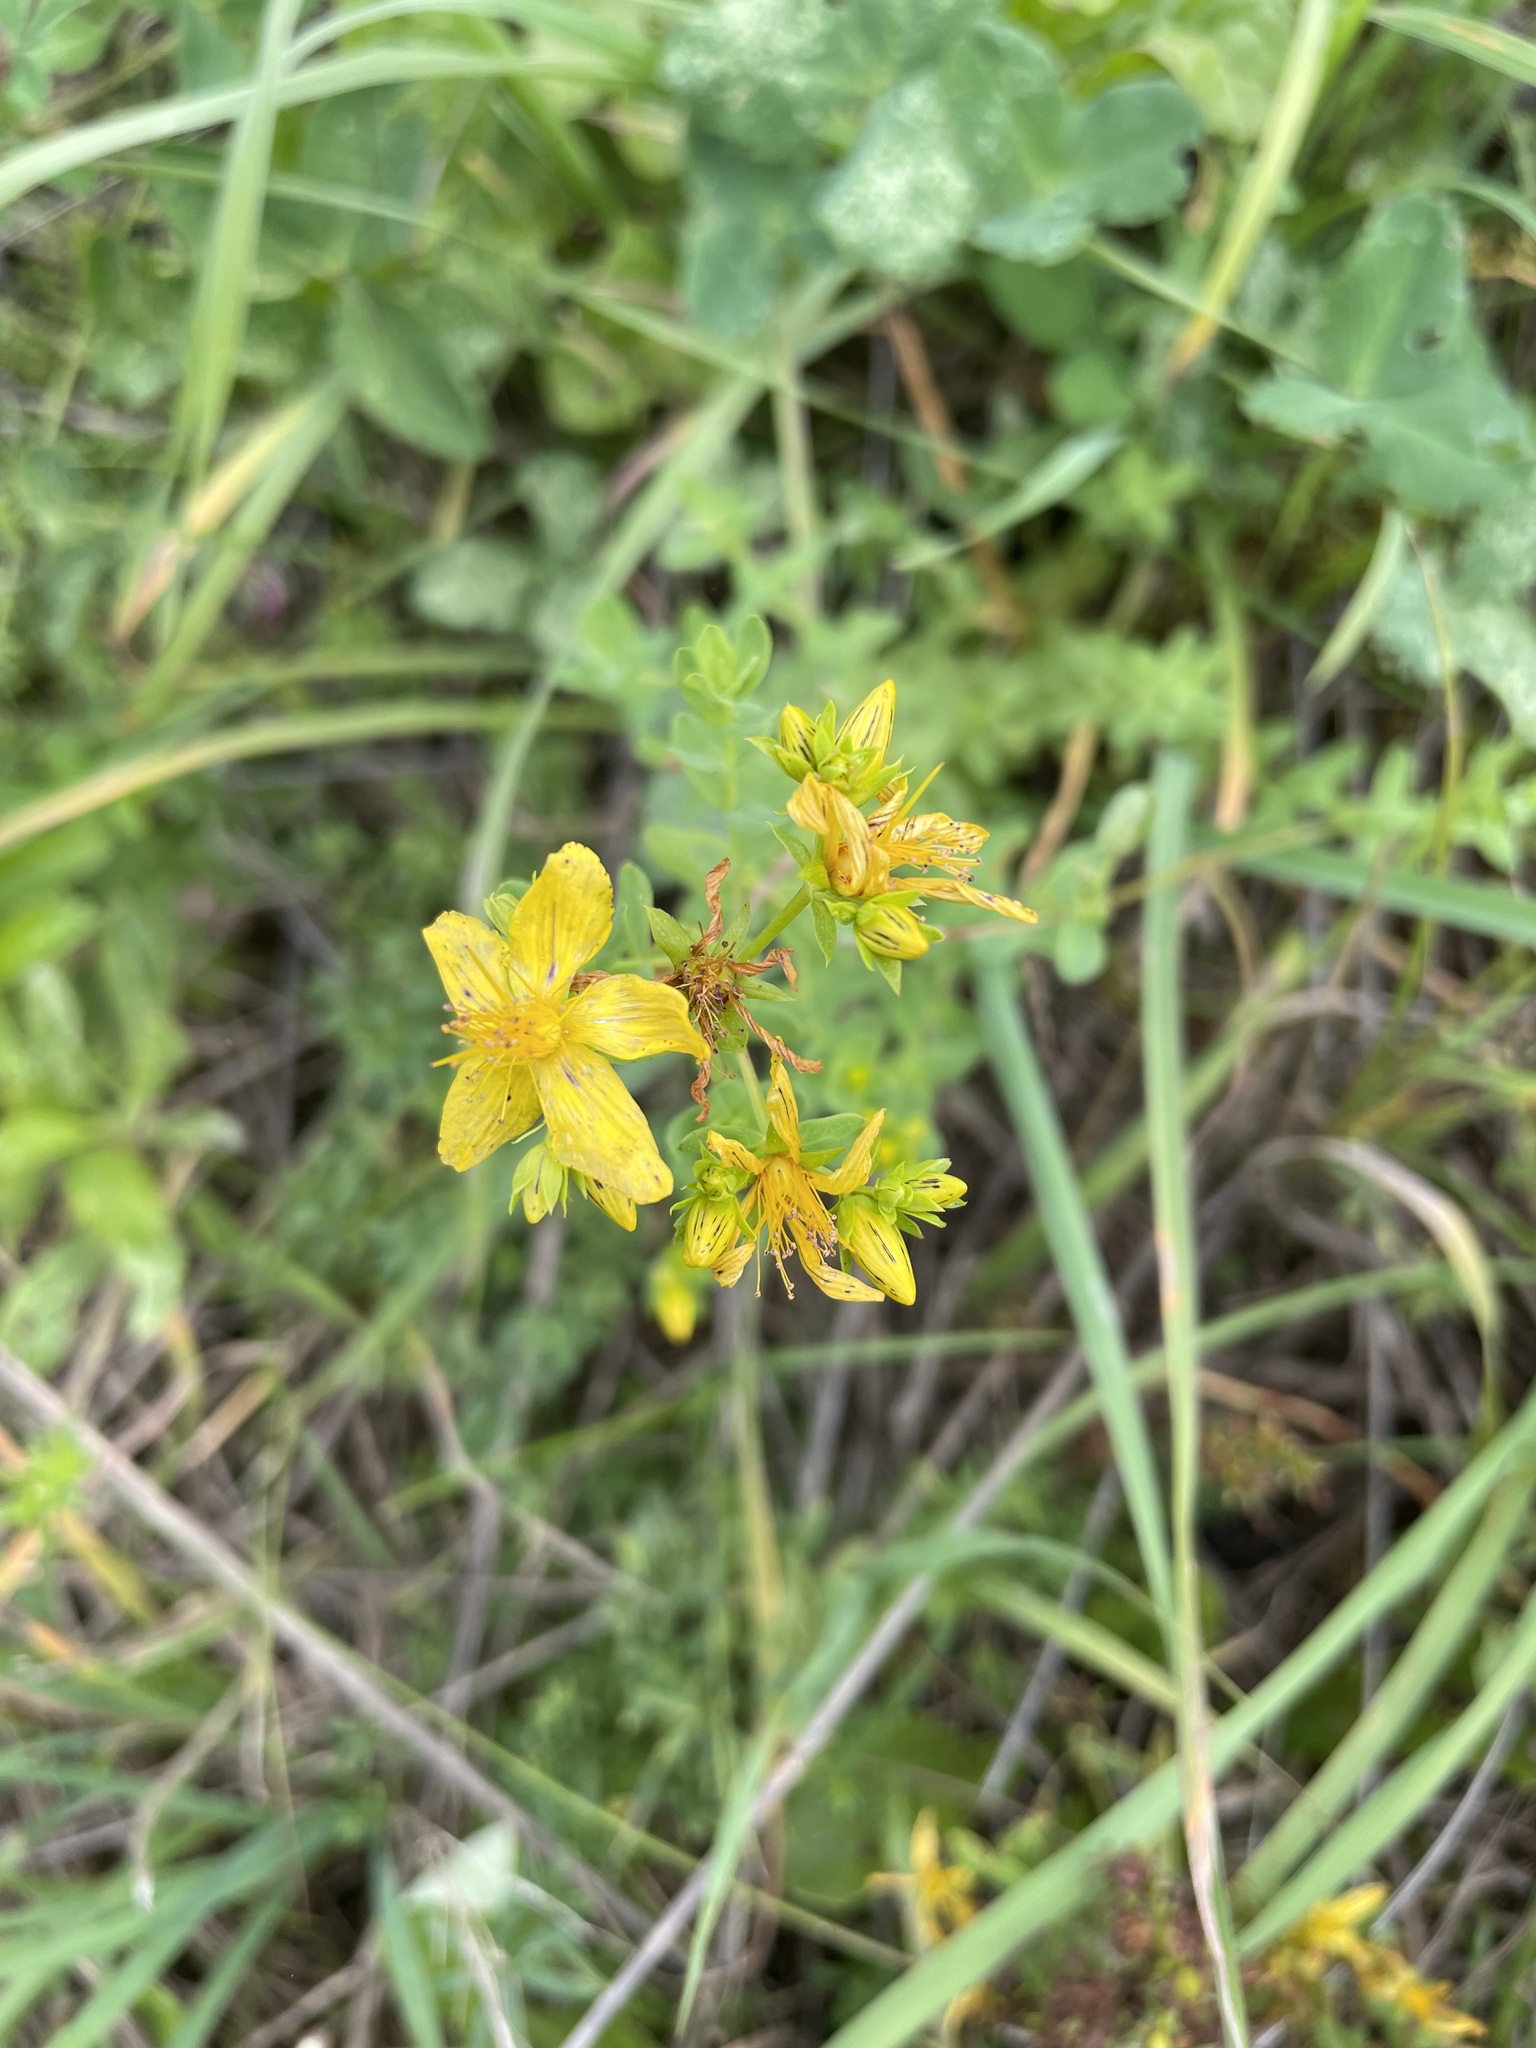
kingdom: Plantae
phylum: Tracheophyta
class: Magnoliopsida
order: Malpighiales
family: Hypericaceae
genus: Hypericum
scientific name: Hypericum perforatum
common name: Common st. johnswort
